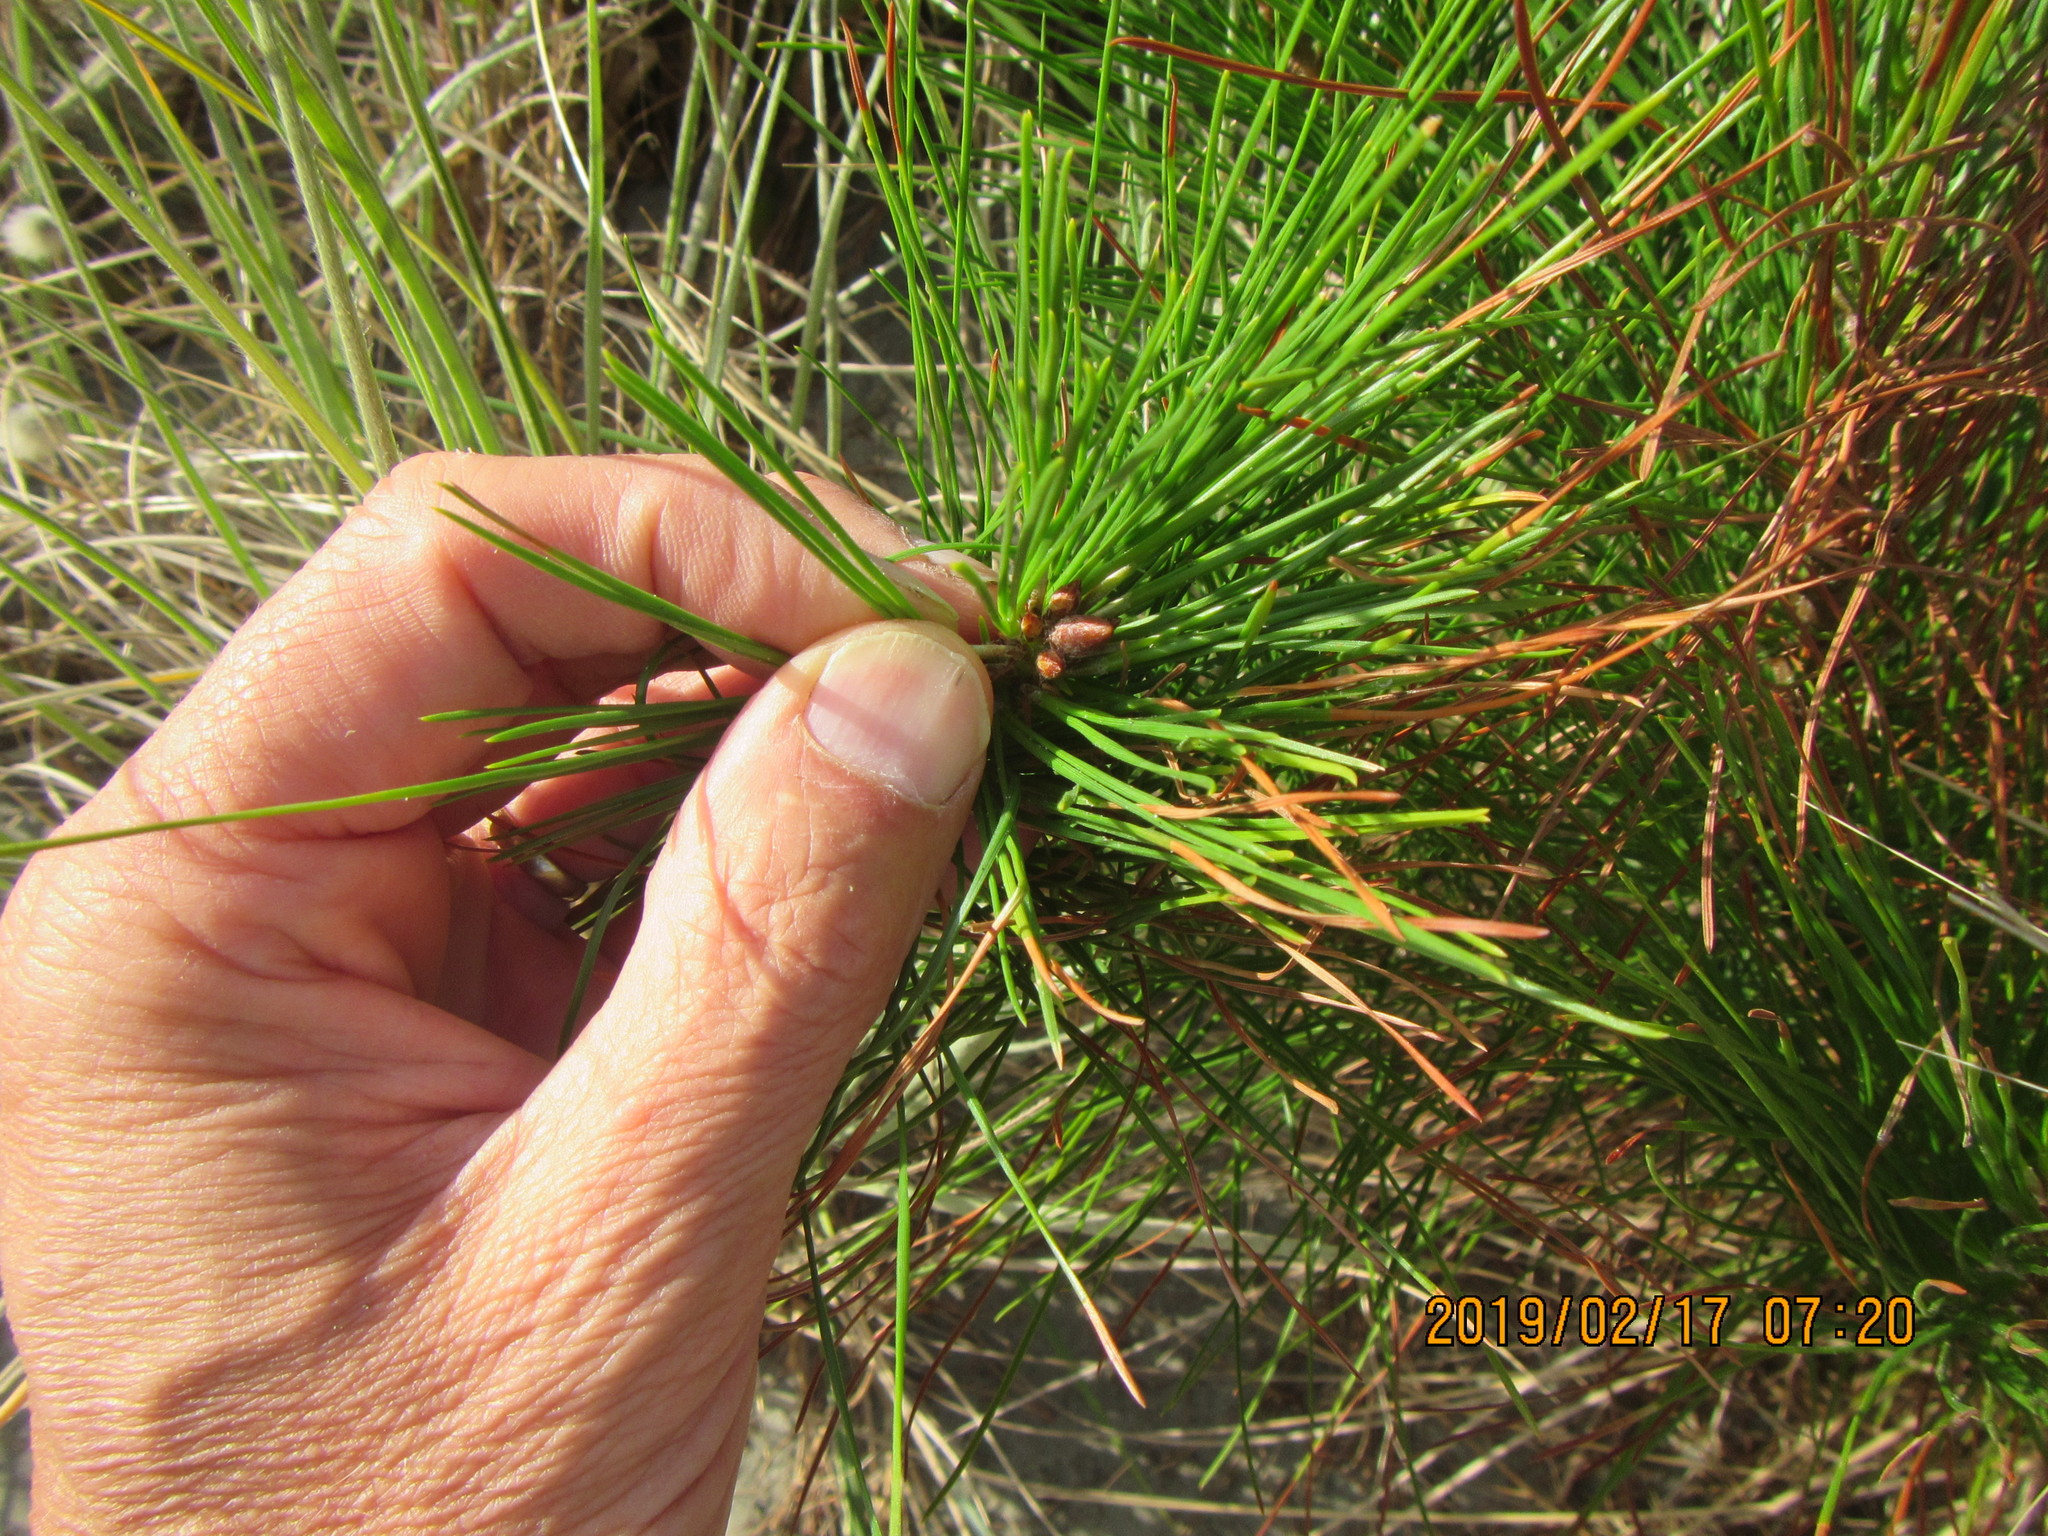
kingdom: Plantae
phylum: Tracheophyta
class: Pinopsida
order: Pinales
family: Pinaceae
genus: Pinus
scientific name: Pinus radiata
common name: Monterey pine
